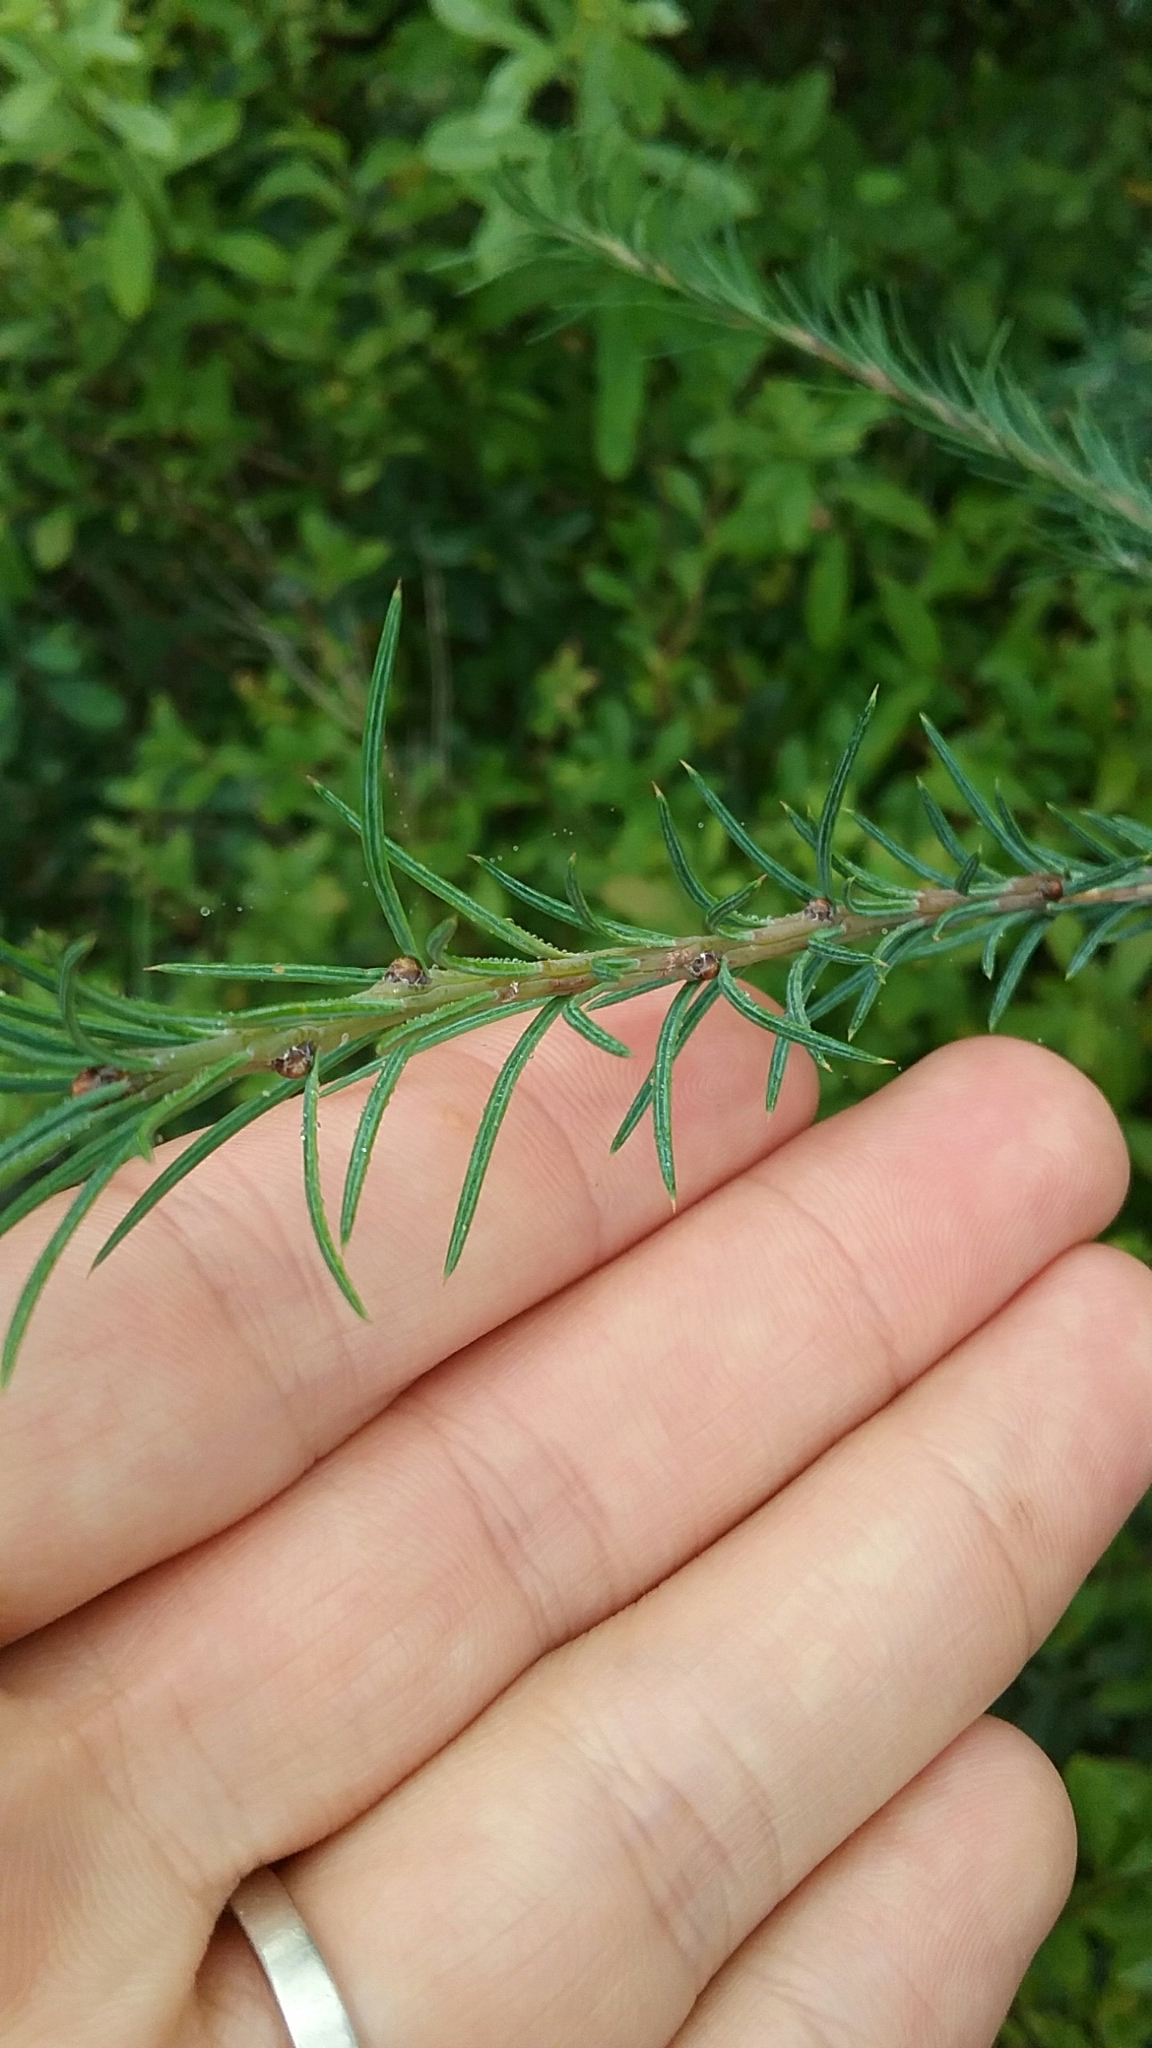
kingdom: Plantae
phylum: Tracheophyta
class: Pinopsida
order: Pinales
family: Pinaceae
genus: Larix
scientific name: Larix laricina
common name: American larch
